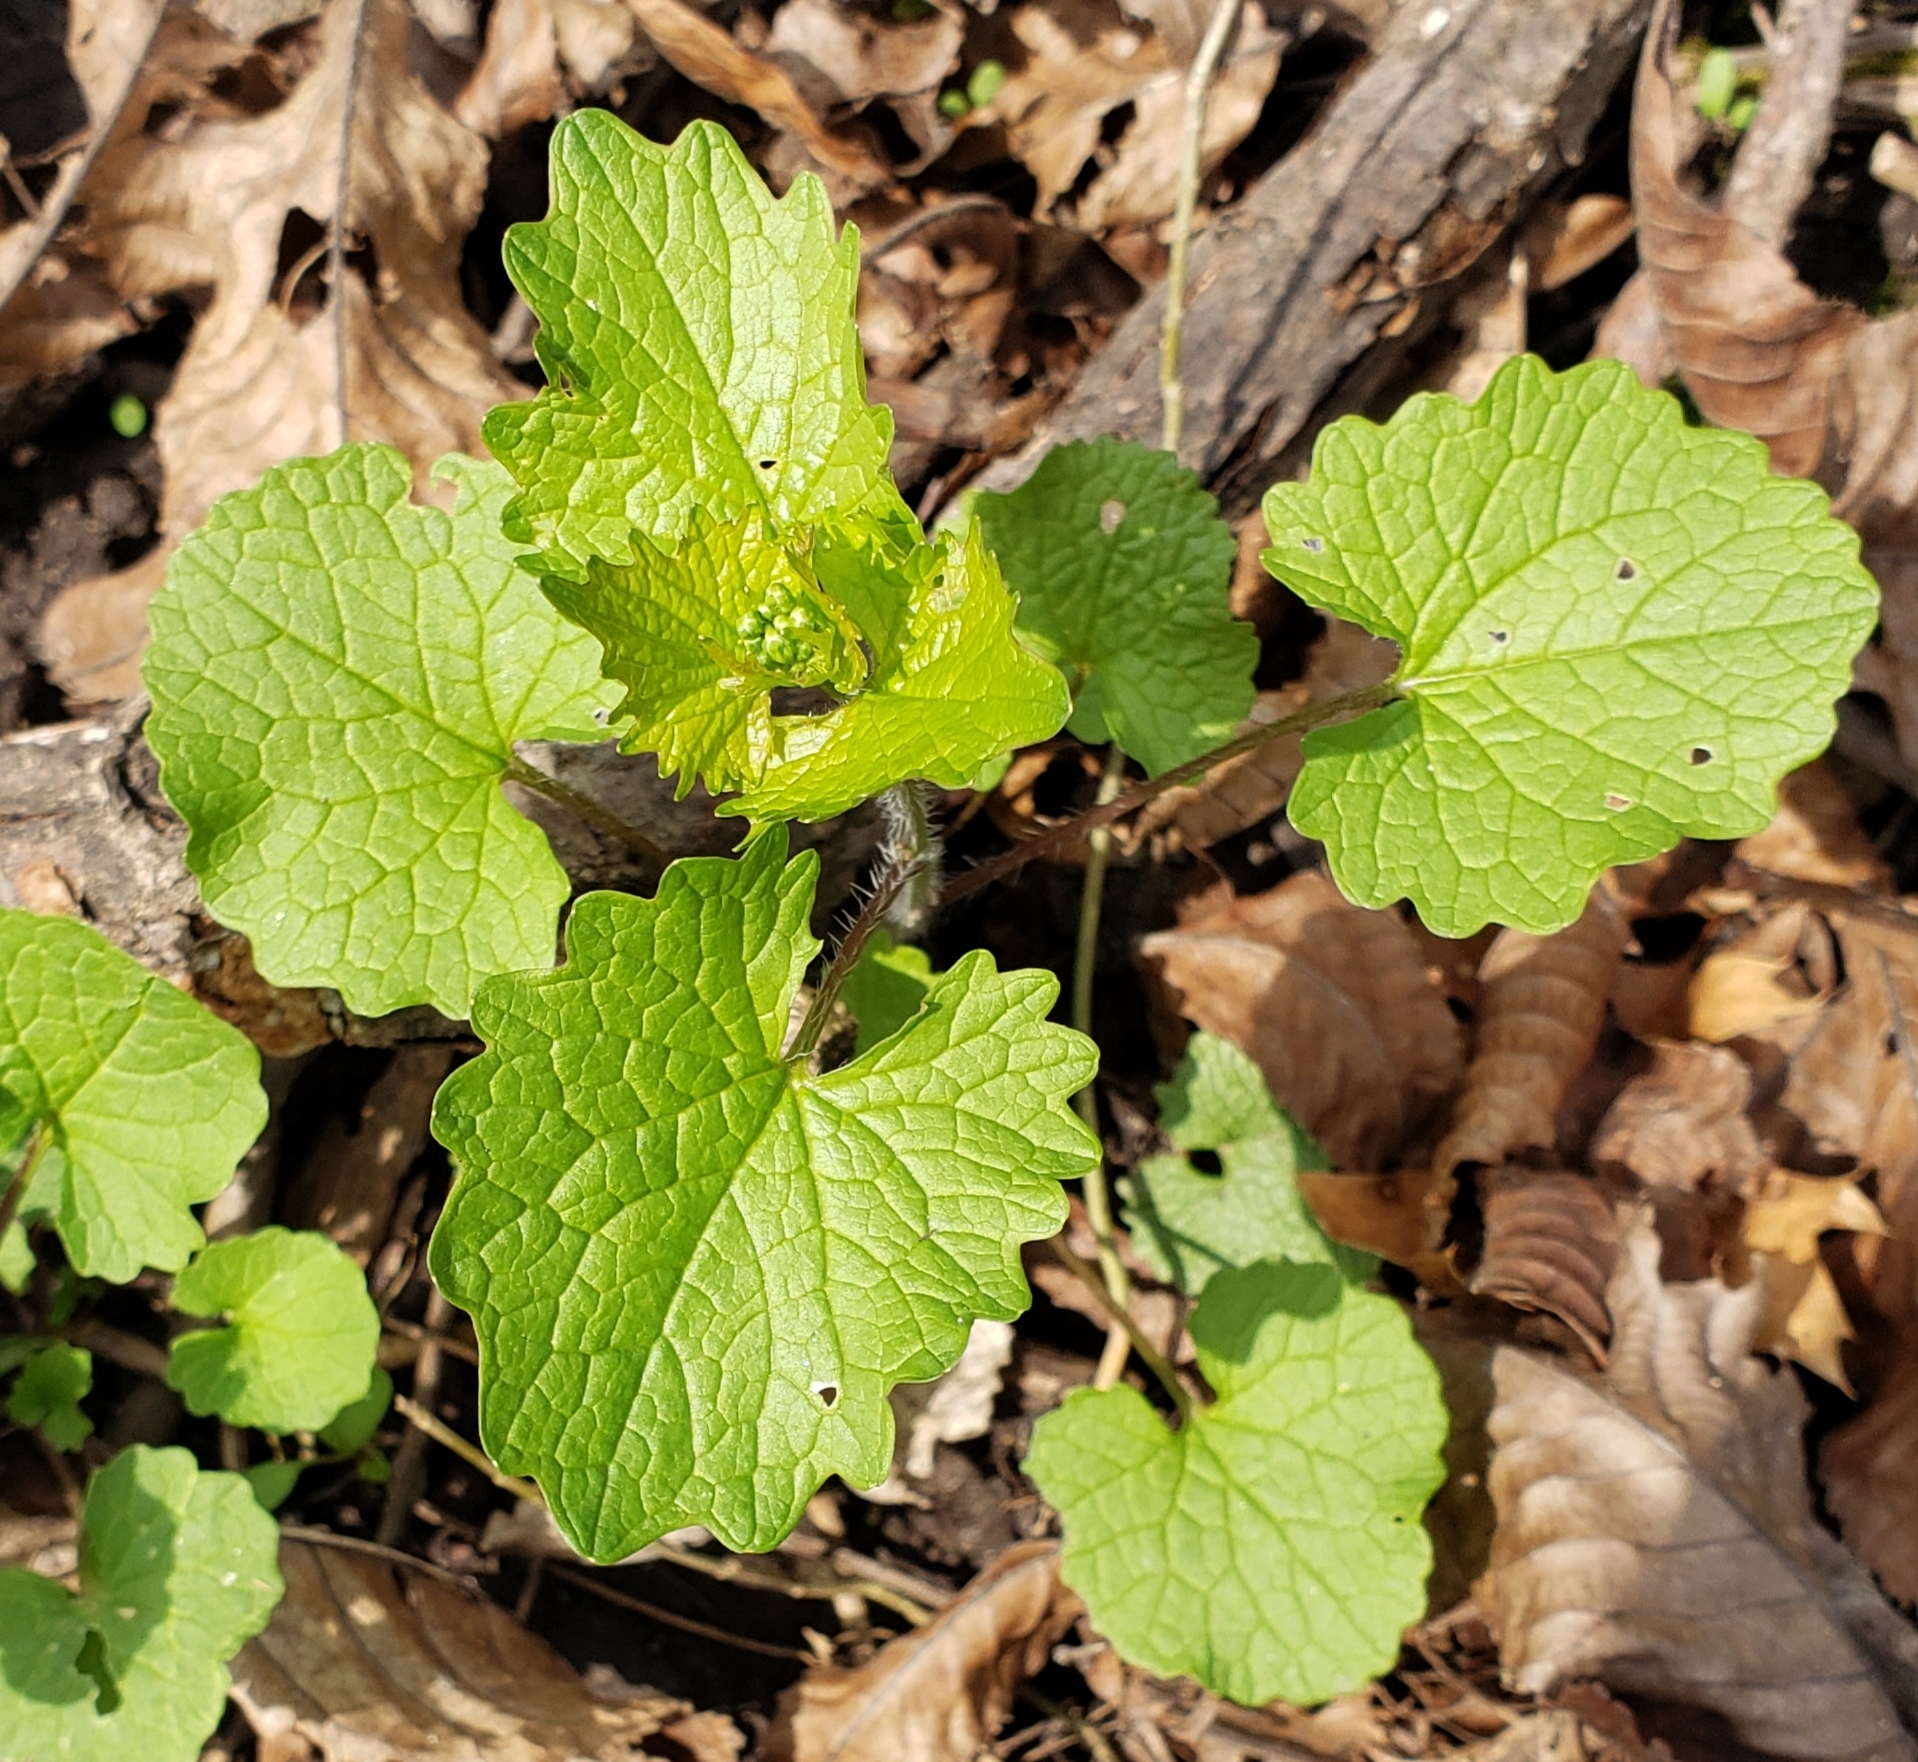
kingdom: Plantae
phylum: Tracheophyta
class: Magnoliopsida
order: Brassicales
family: Brassicaceae
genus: Alliaria
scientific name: Alliaria petiolata
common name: Garlic mustard
